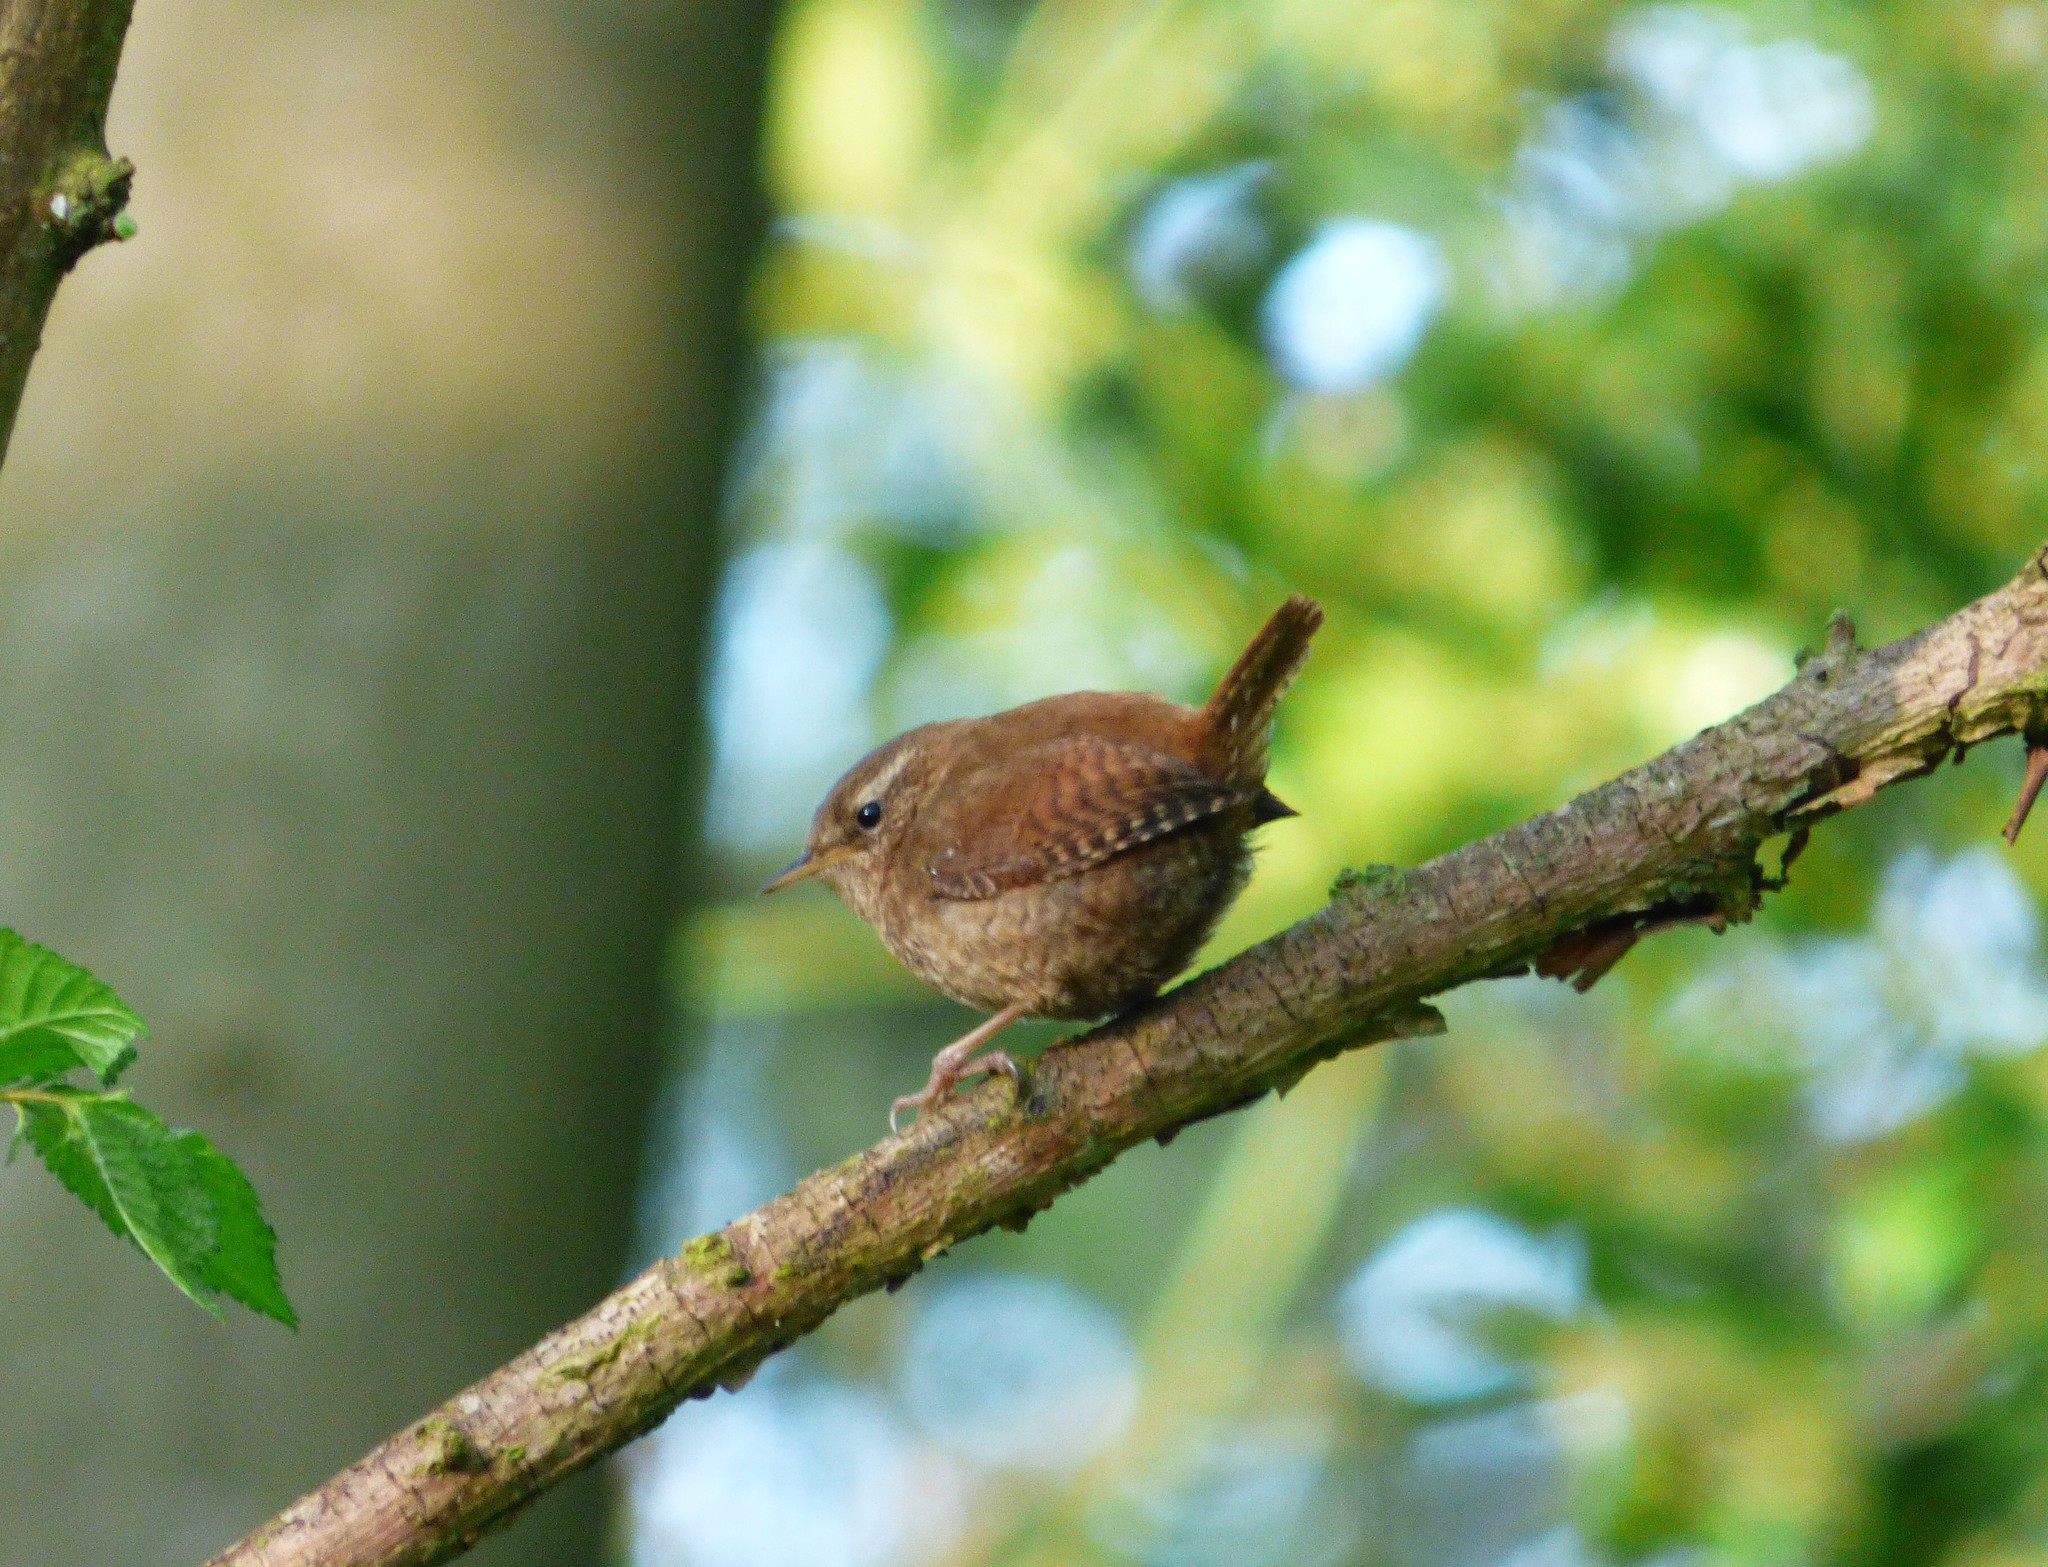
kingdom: Animalia
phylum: Chordata
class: Aves
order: Passeriformes
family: Troglodytidae
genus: Troglodytes
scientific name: Troglodytes troglodytes
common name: Eurasian wren
